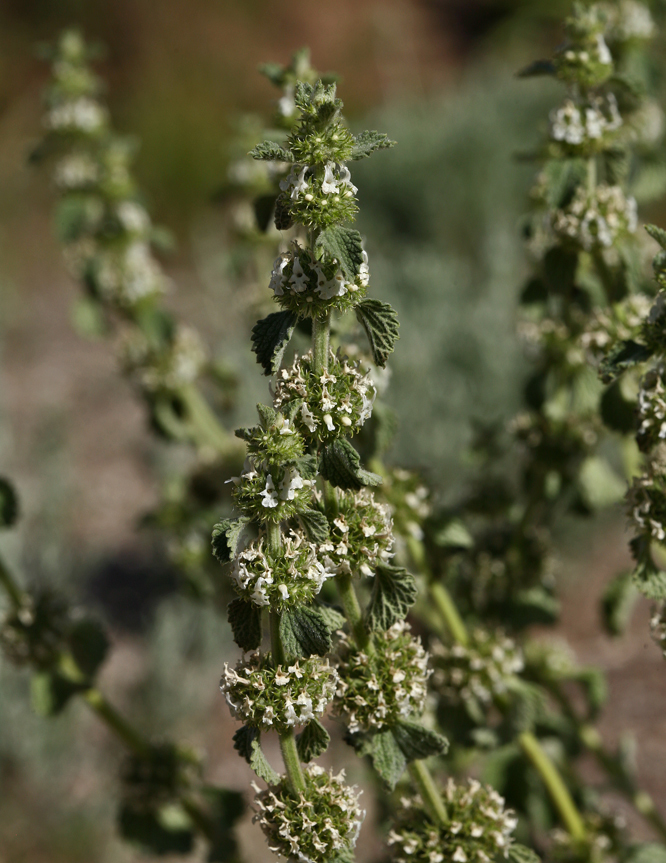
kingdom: Plantae
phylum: Tracheophyta
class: Magnoliopsida
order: Lamiales
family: Lamiaceae
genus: Marrubium
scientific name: Marrubium vulgare
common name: Horehound
